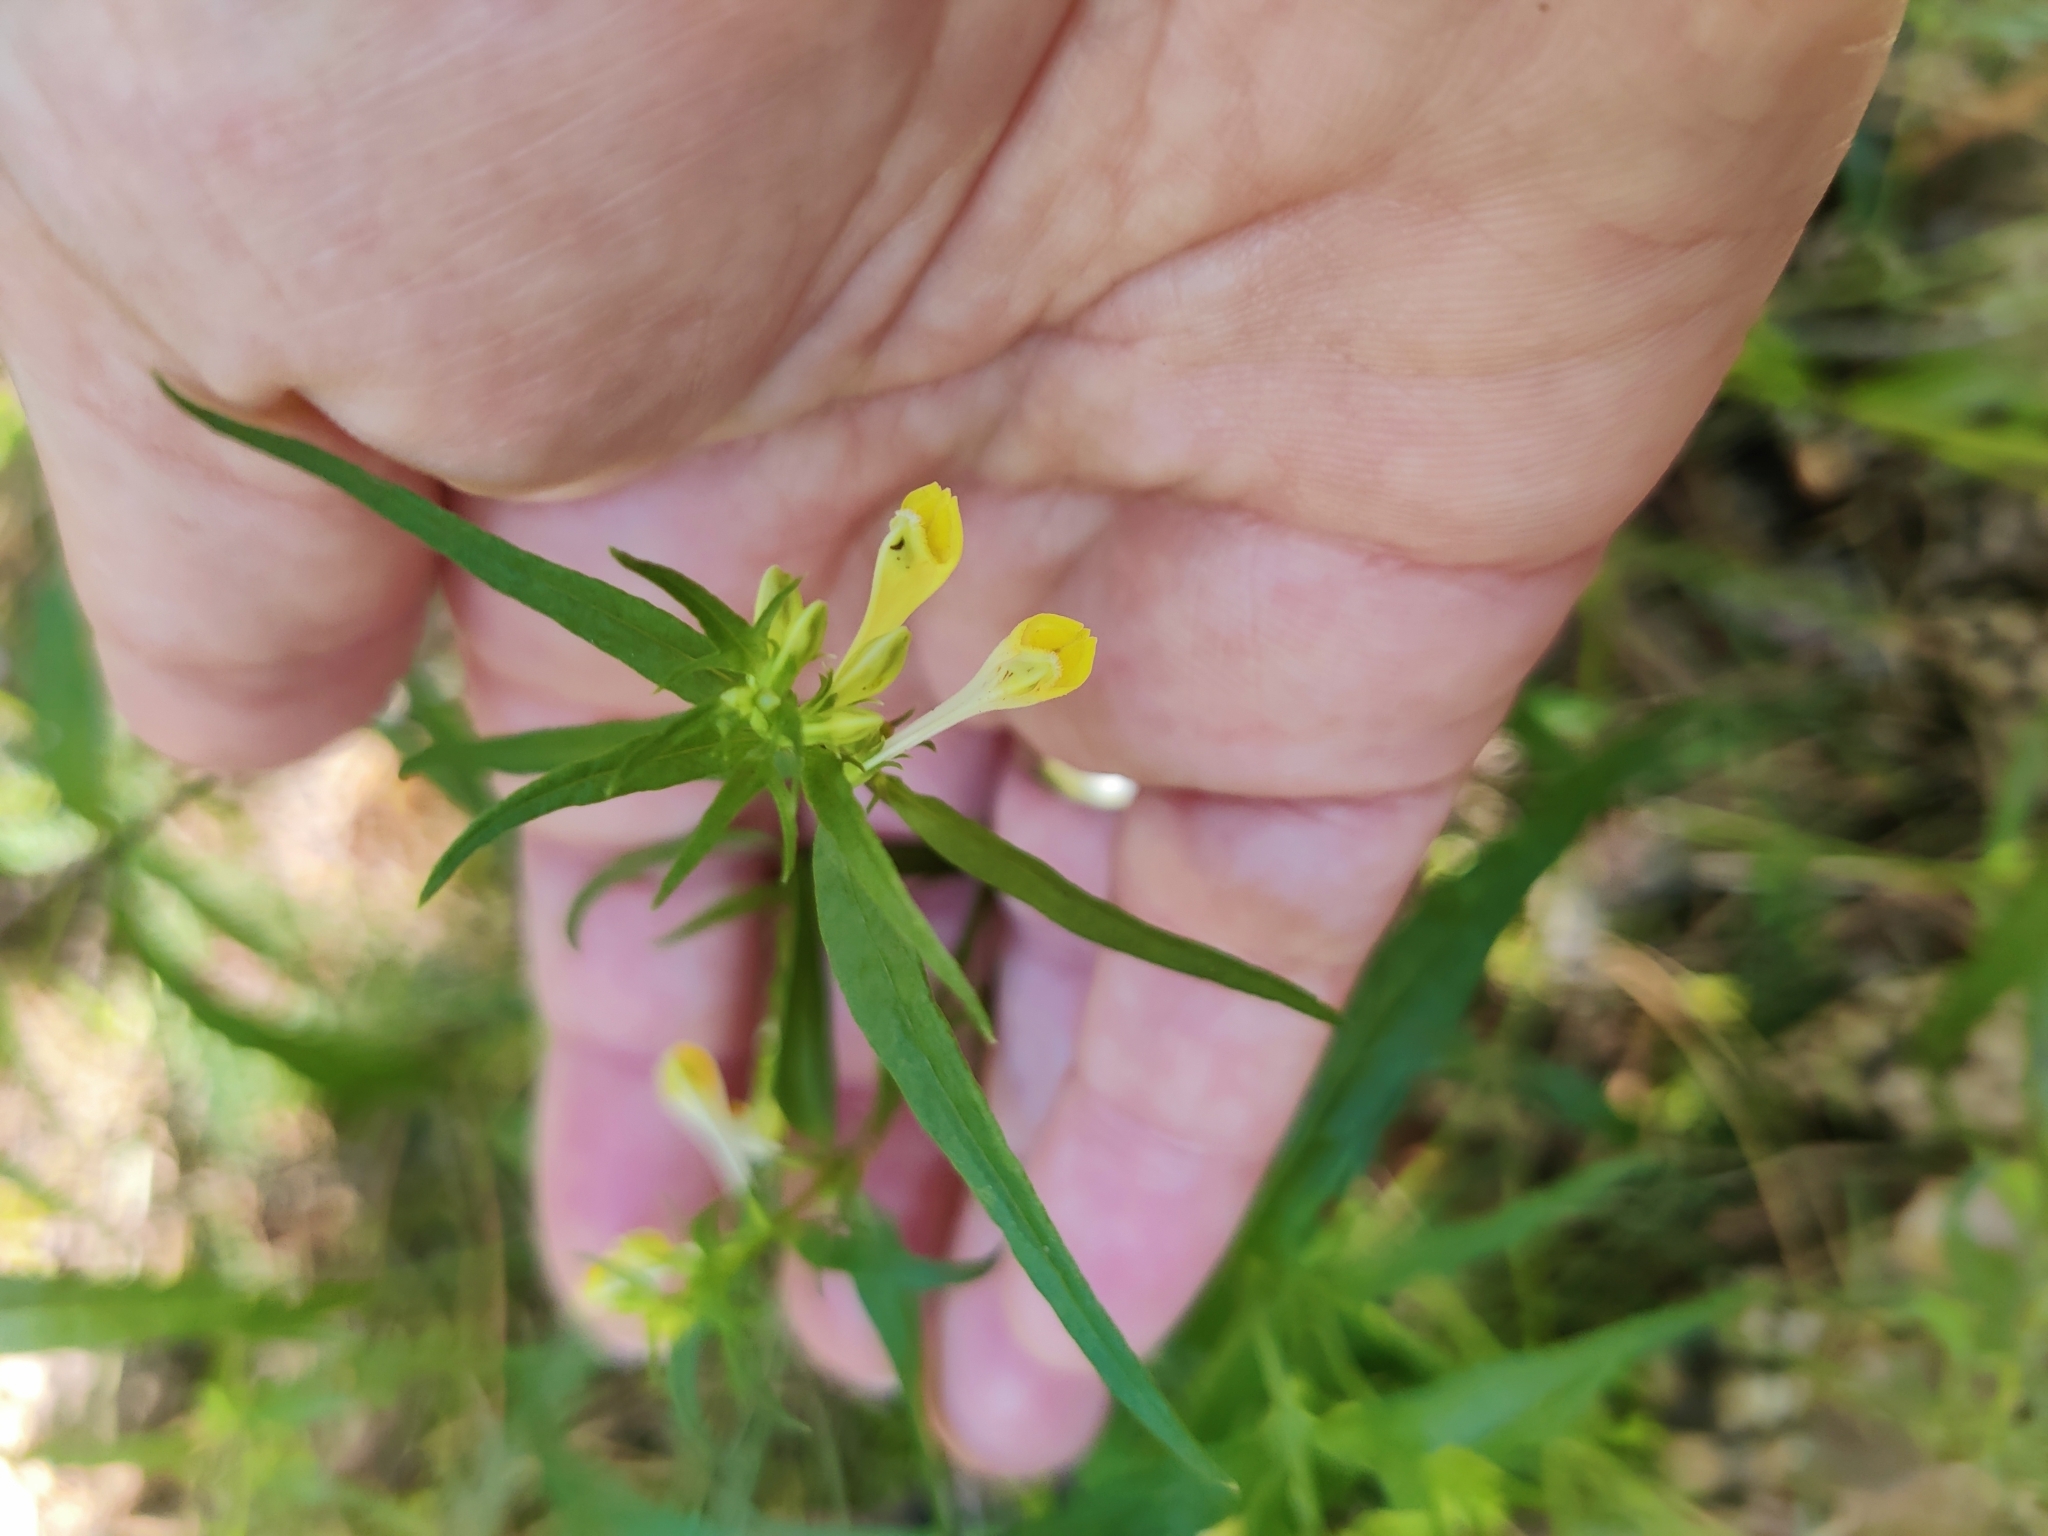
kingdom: Plantae
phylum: Tracheophyta
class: Magnoliopsida
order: Lamiales
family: Orobanchaceae
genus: Melampyrum
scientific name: Melampyrum pratense
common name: Common cow-wheat
